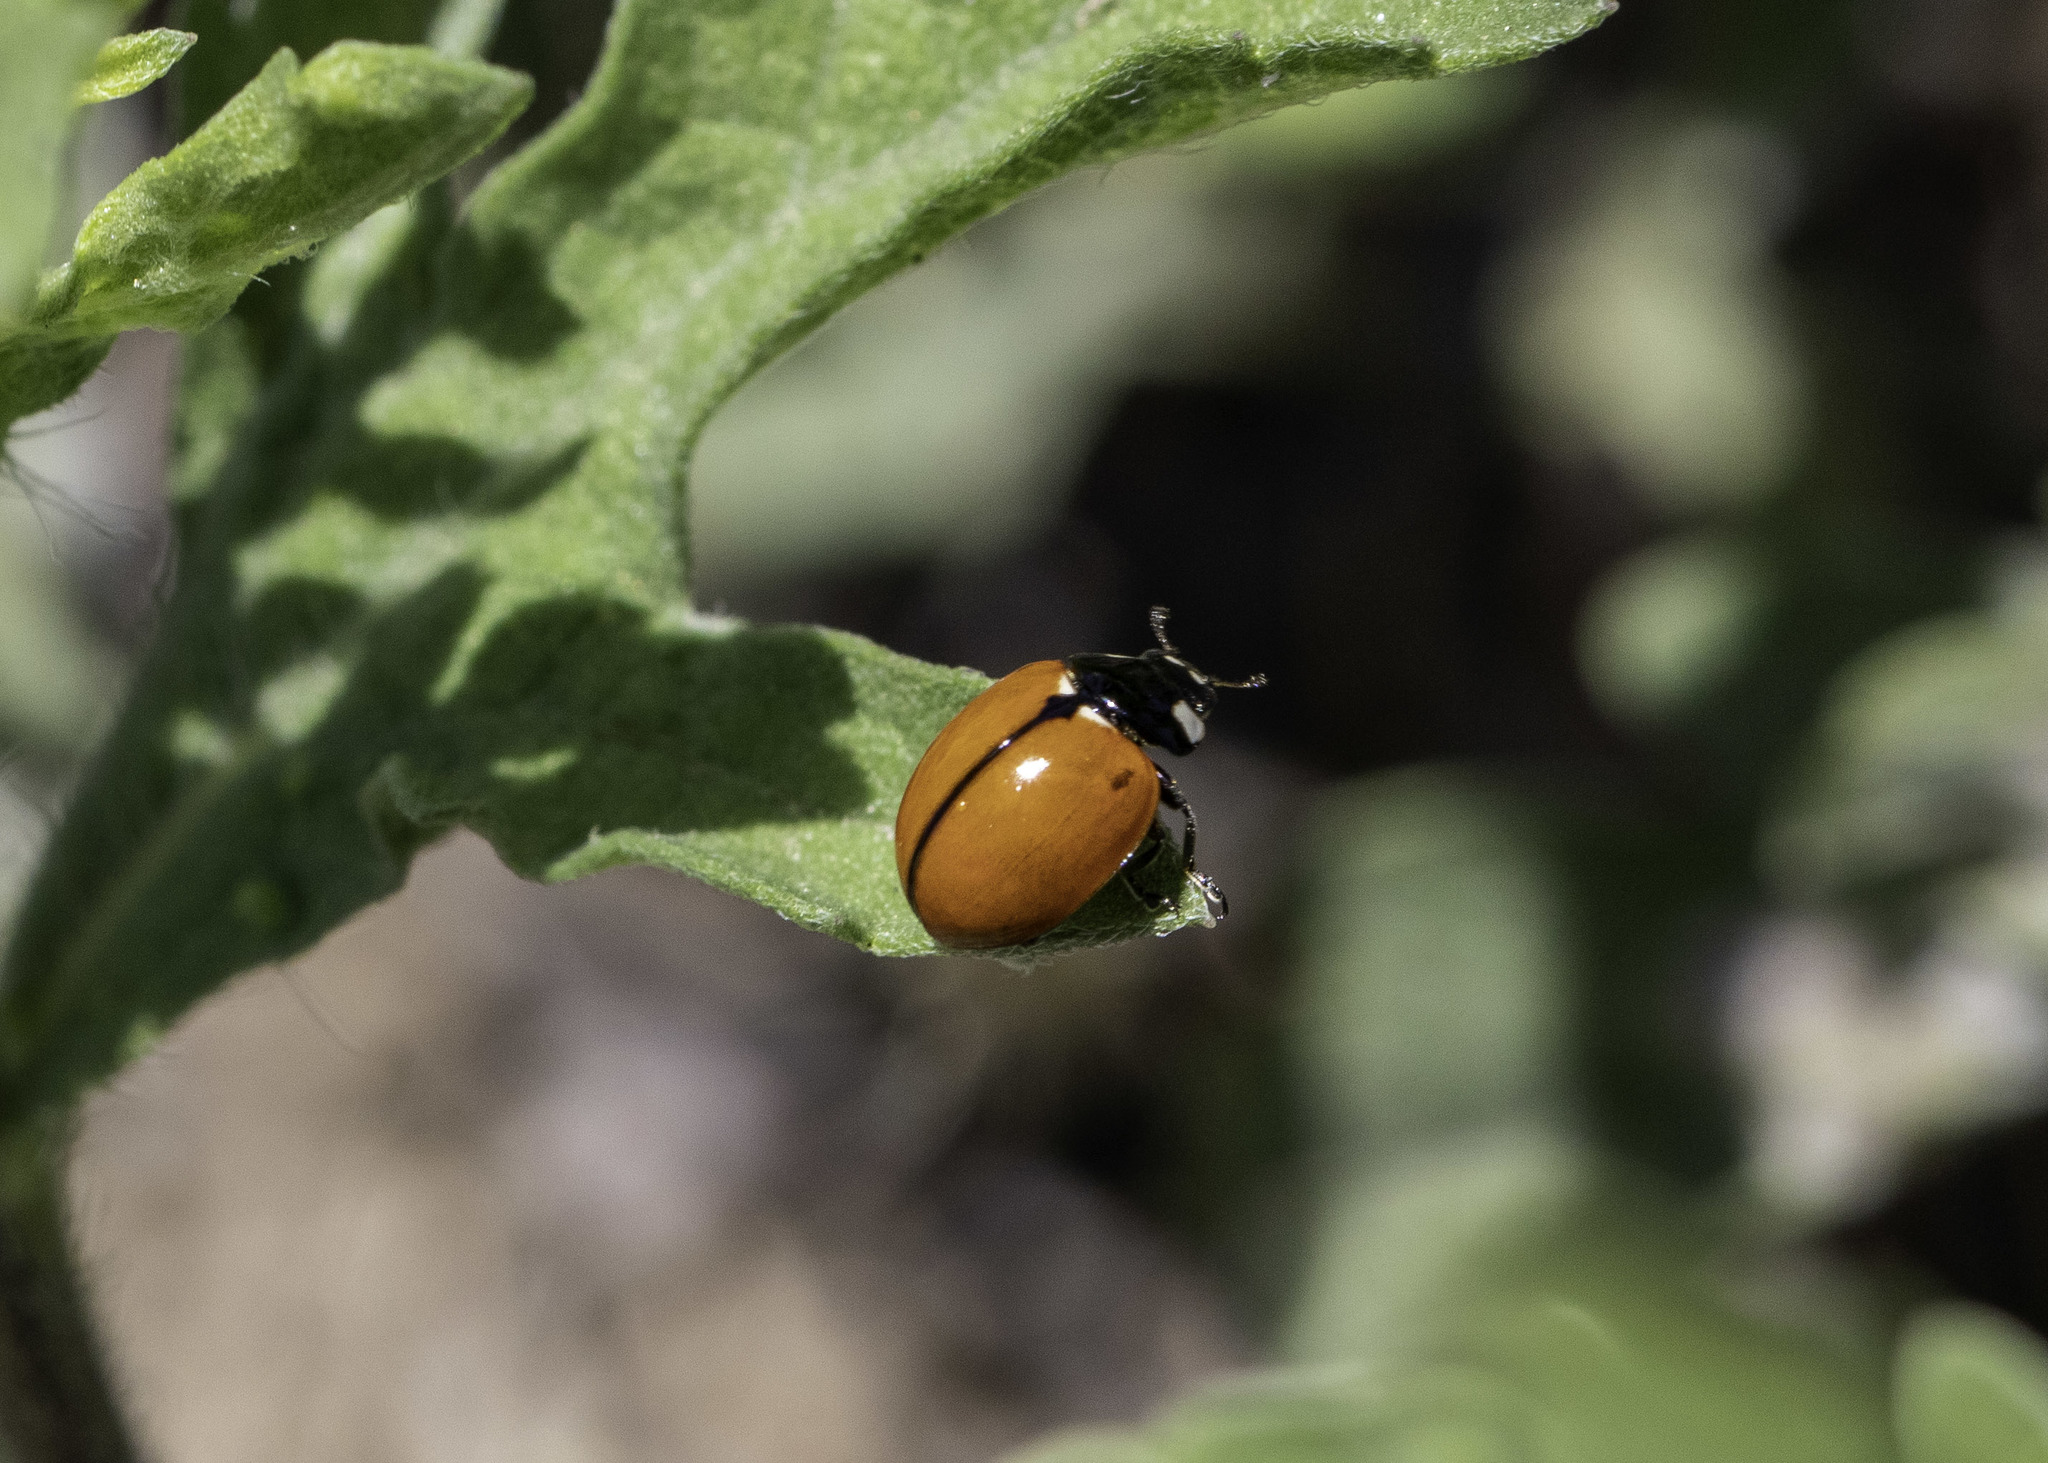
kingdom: Animalia
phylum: Arthropoda
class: Insecta
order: Coleoptera
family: Coccinellidae
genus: Coccinella
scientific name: Coccinella californica
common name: Lady beetle
